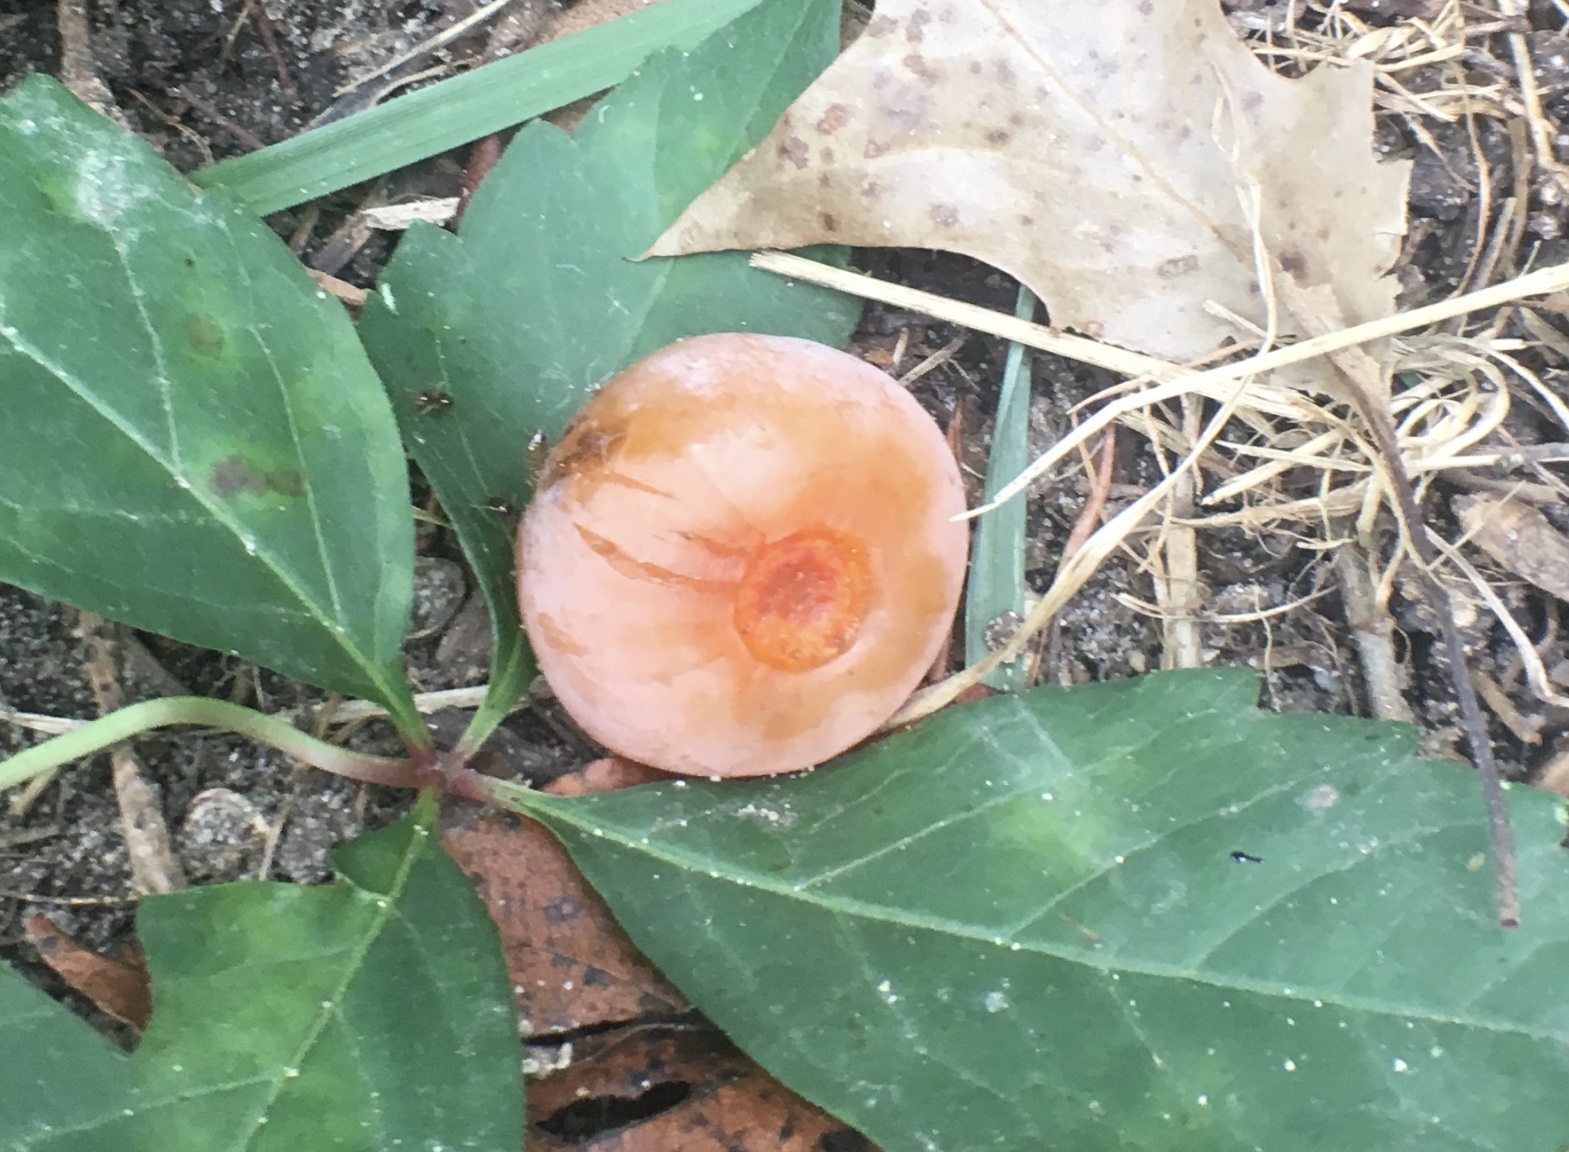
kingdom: Plantae
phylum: Tracheophyta
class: Magnoliopsida
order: Ericales
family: Ebenaceae
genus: Diospyros
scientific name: Diospyros virginiana
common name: Persimmon
